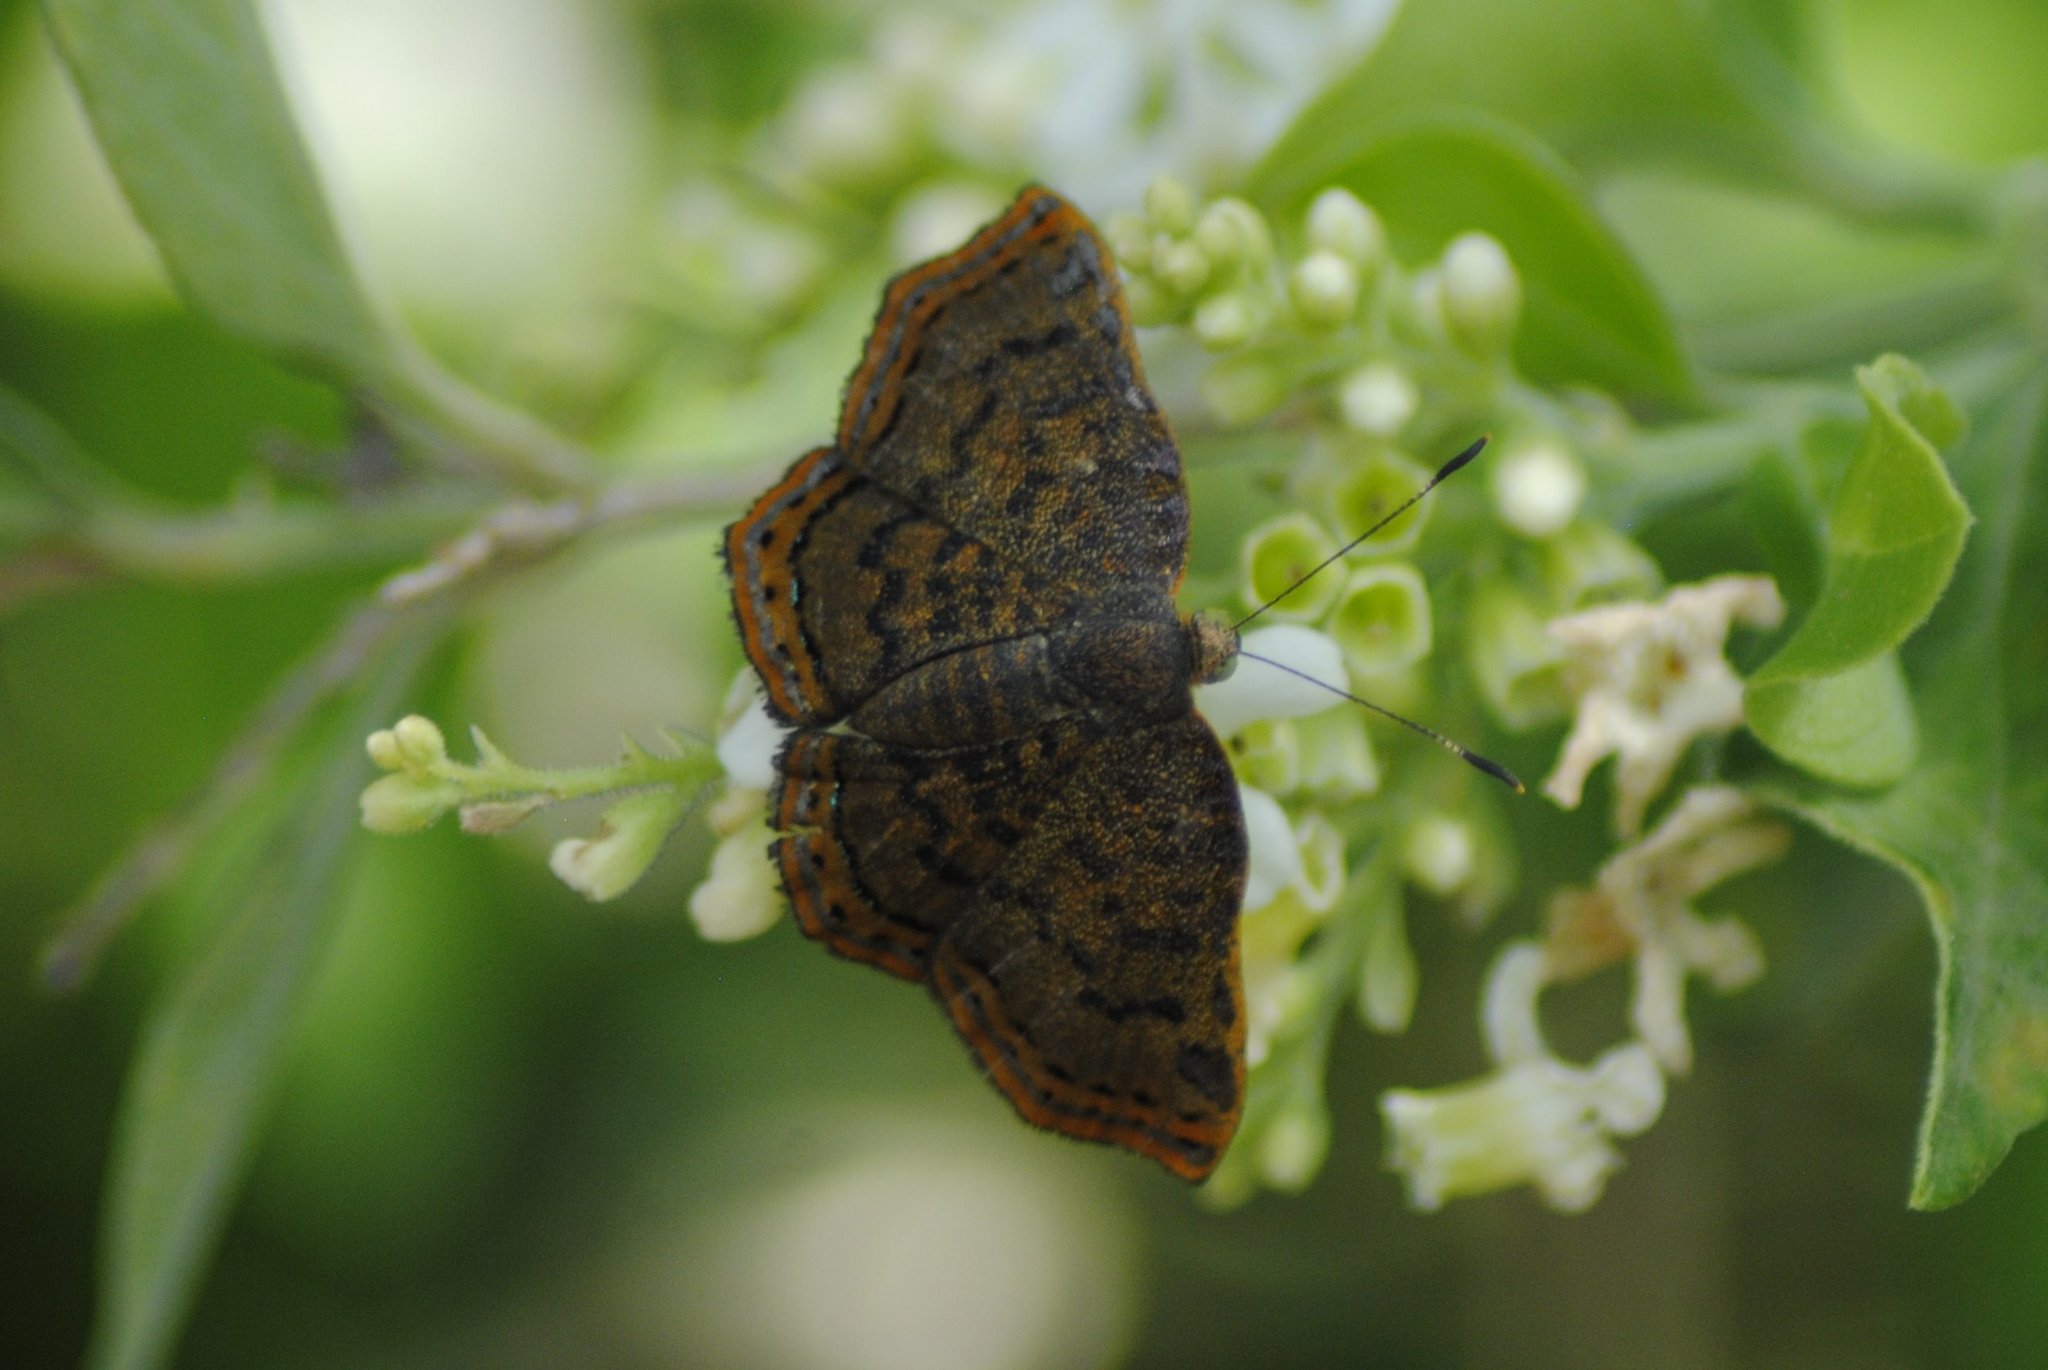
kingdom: Animalia
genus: Caria
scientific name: Caria ino
